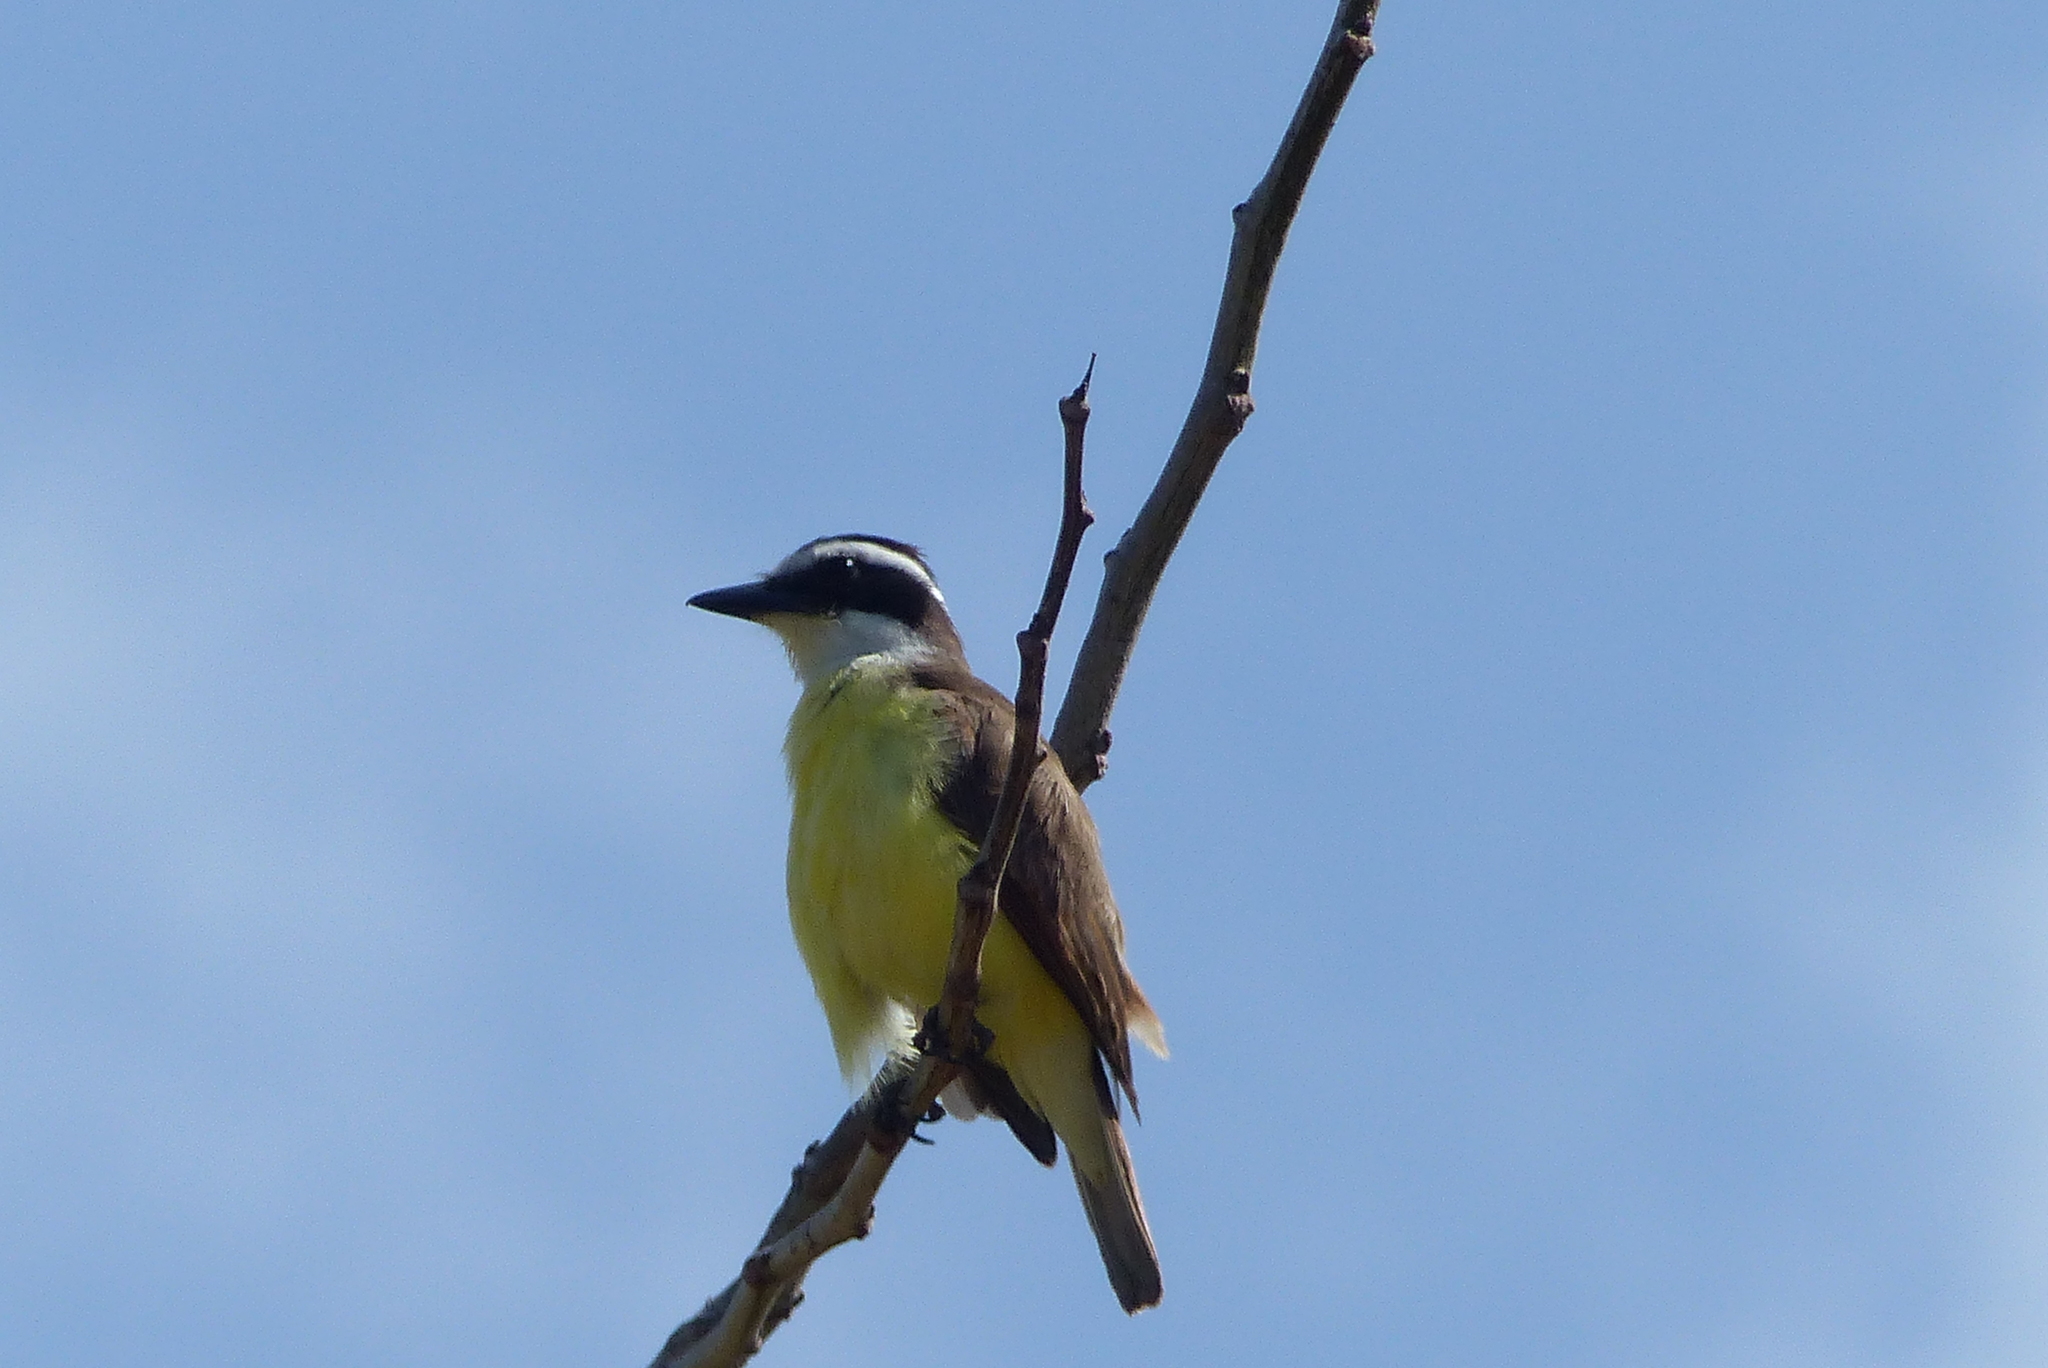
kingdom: Animalia
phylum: Chordata
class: Aves
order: Passeriformes
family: Tyrannidae
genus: Pitangus
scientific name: Pitangus sulphuratus
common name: Great kiskadee
